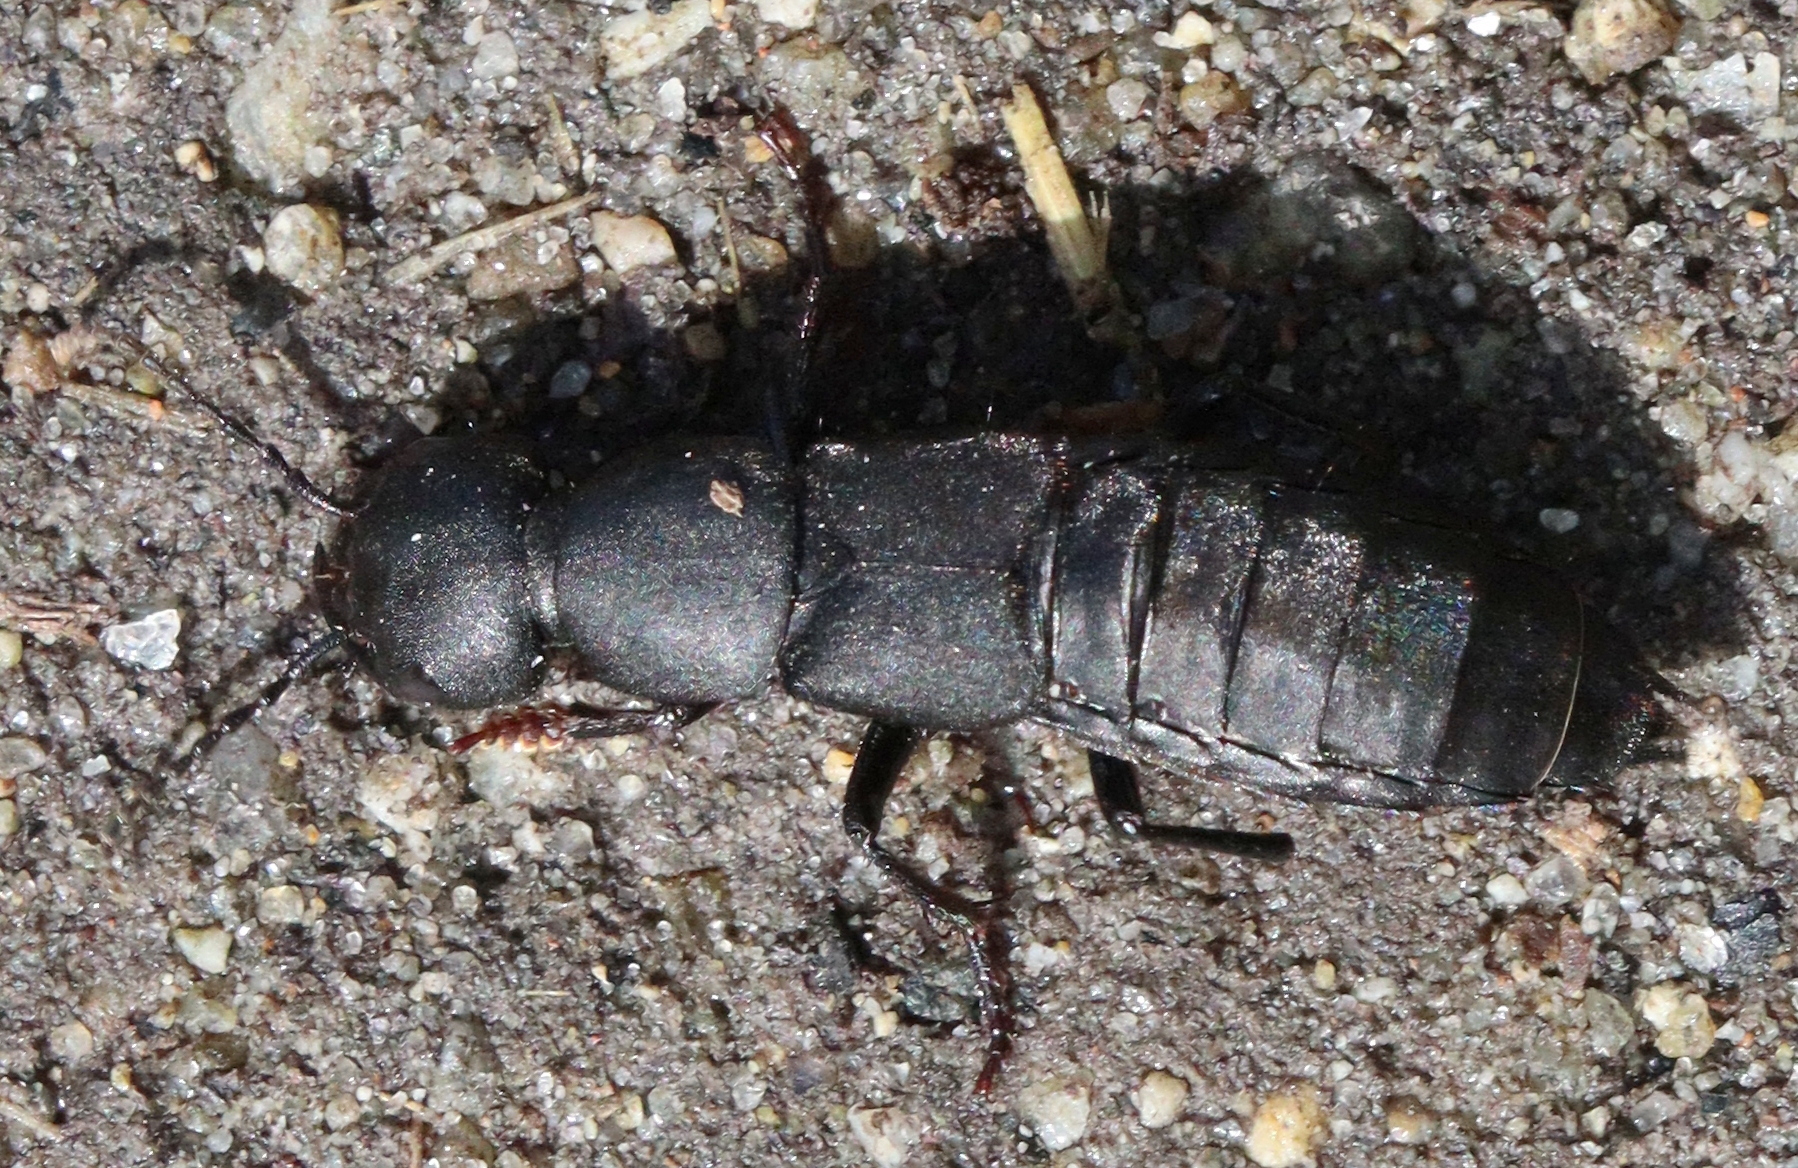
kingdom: Animalia
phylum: Arthropoda
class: Insecta
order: Coleoptera
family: Staphylinidae
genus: Ocypus
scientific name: Ocypus olens
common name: Devil's coach-horse
